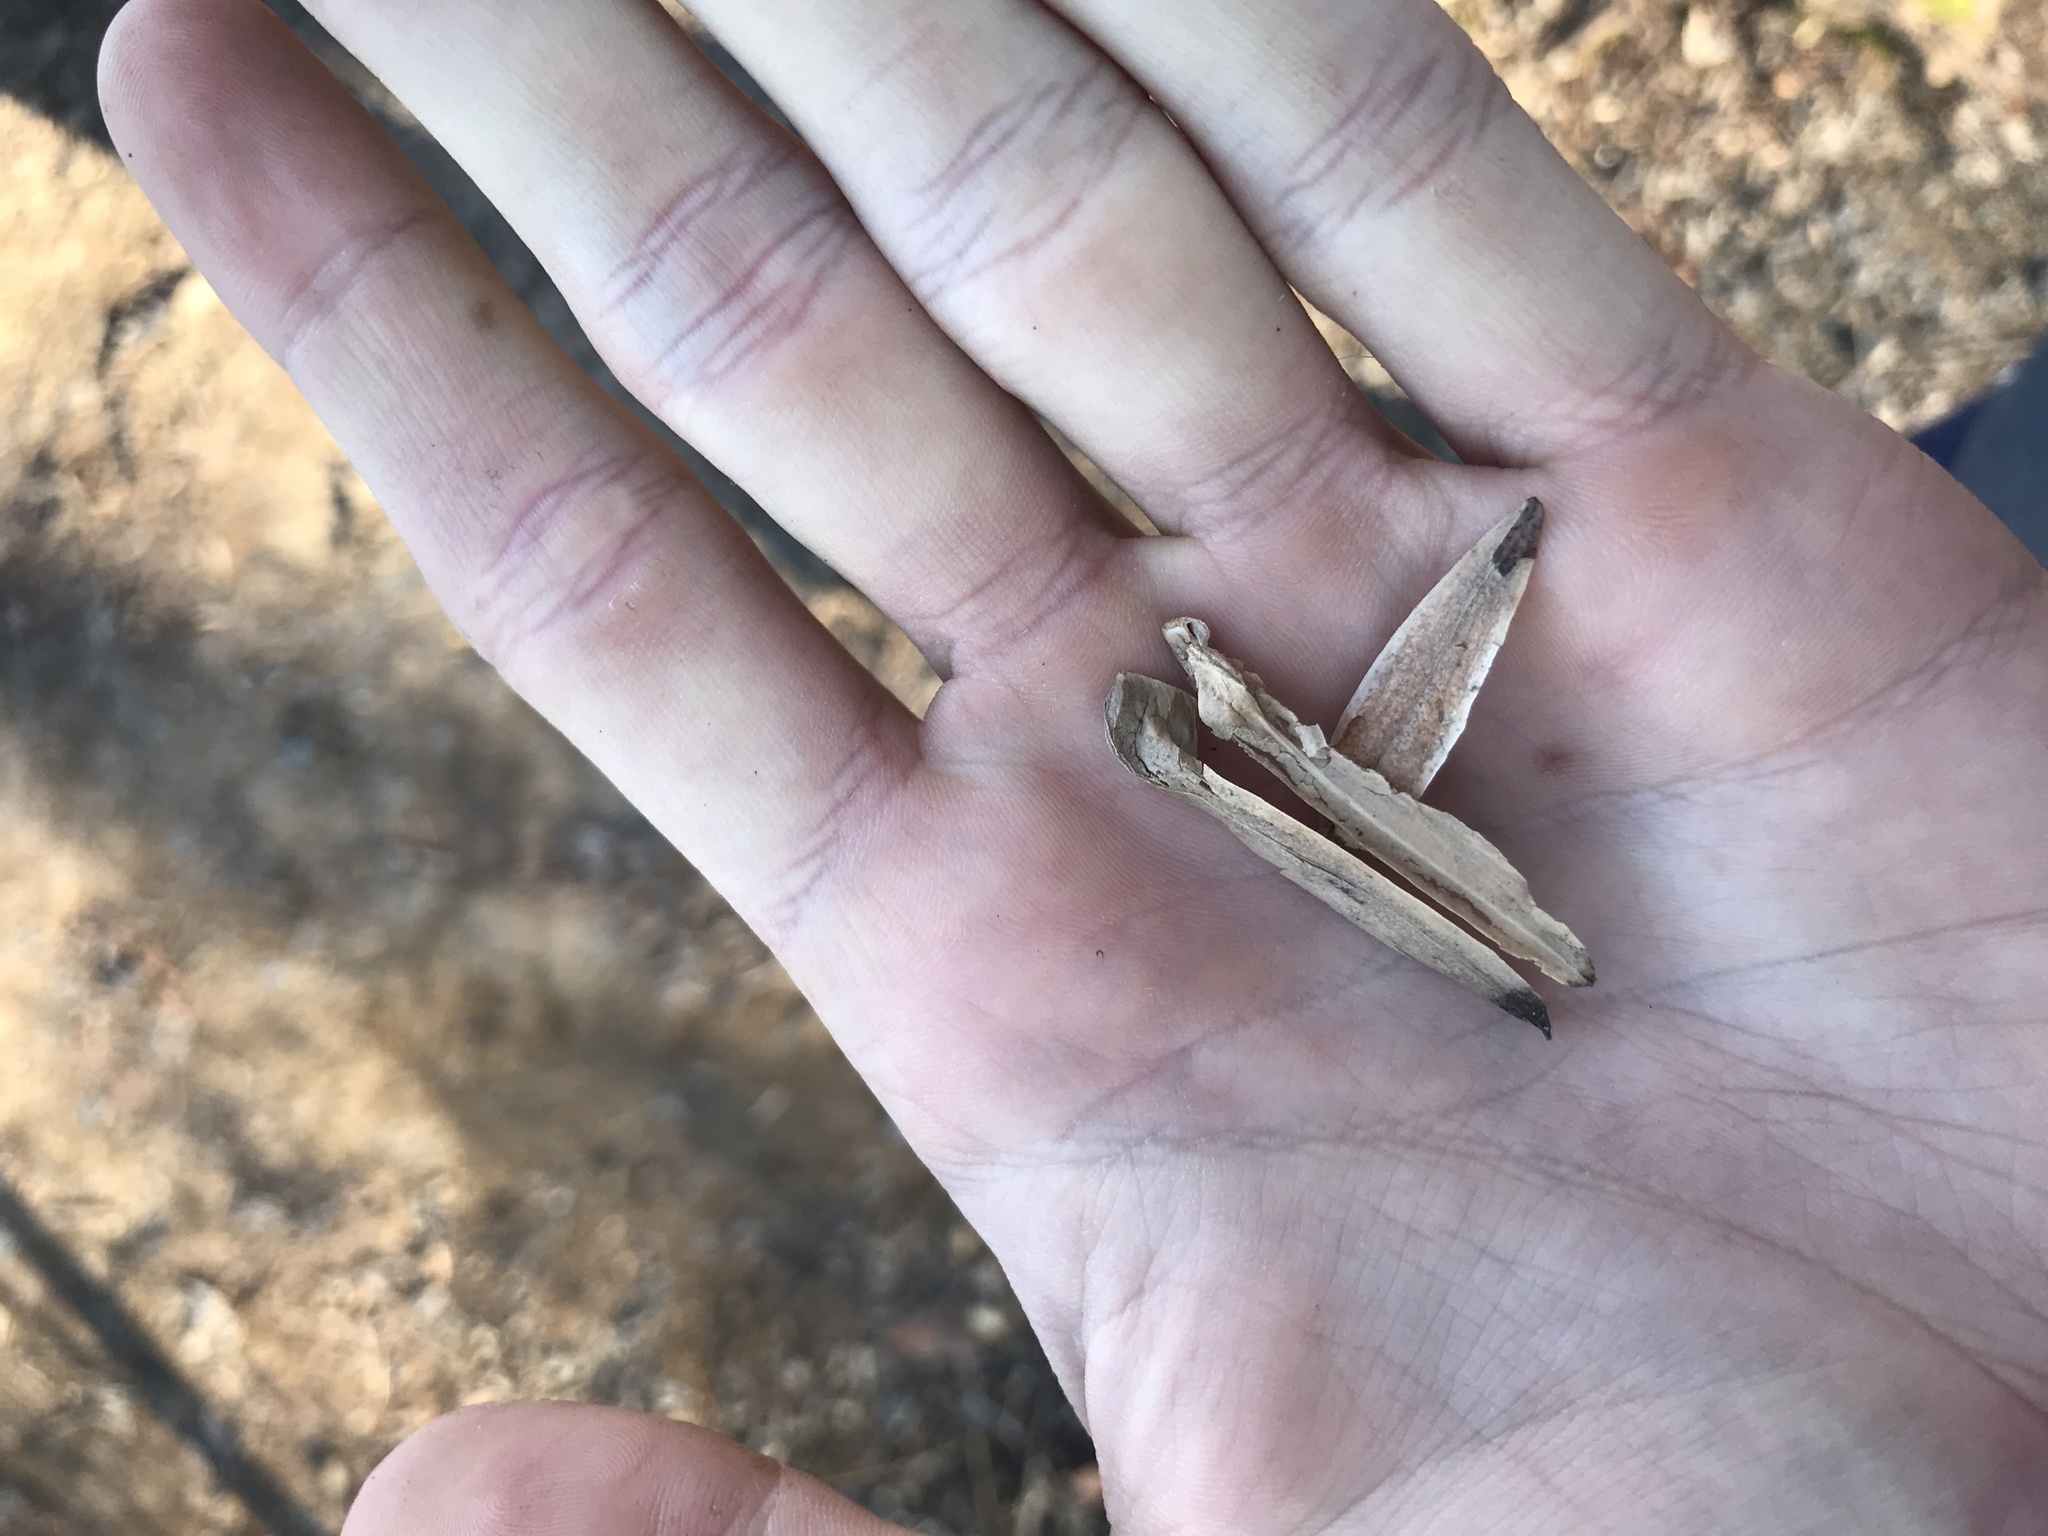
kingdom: Plantae
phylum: Tracheophyta
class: Magnoliopsida
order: Magnoliales
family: Magnoliaceae
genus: Liriodendron
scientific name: Liriodendron tulipifera
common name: Tulip tree
